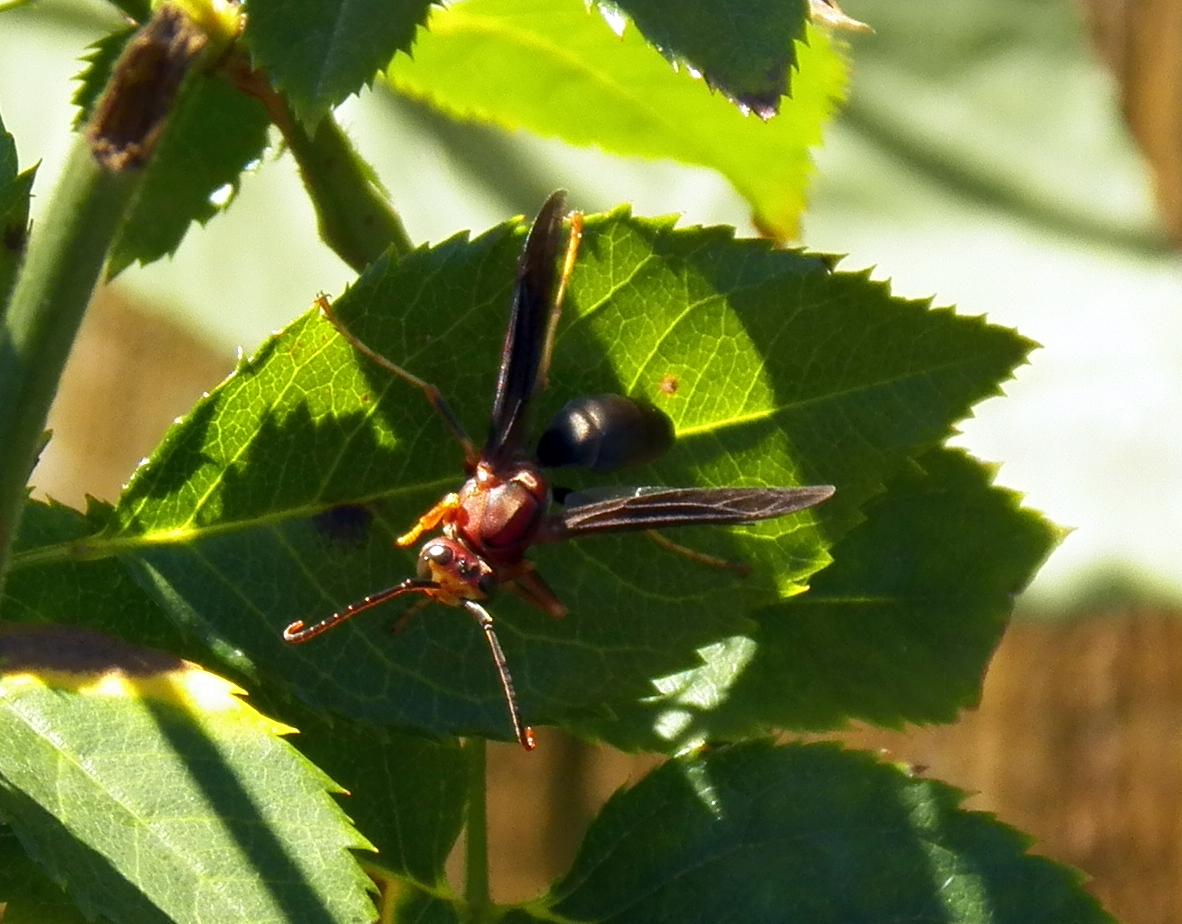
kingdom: Animalia
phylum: Arthropoda
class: Insecta
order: Hymenoptera
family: Eumenidae
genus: Polistes
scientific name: Polistes metricus
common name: Metric paper wasp
